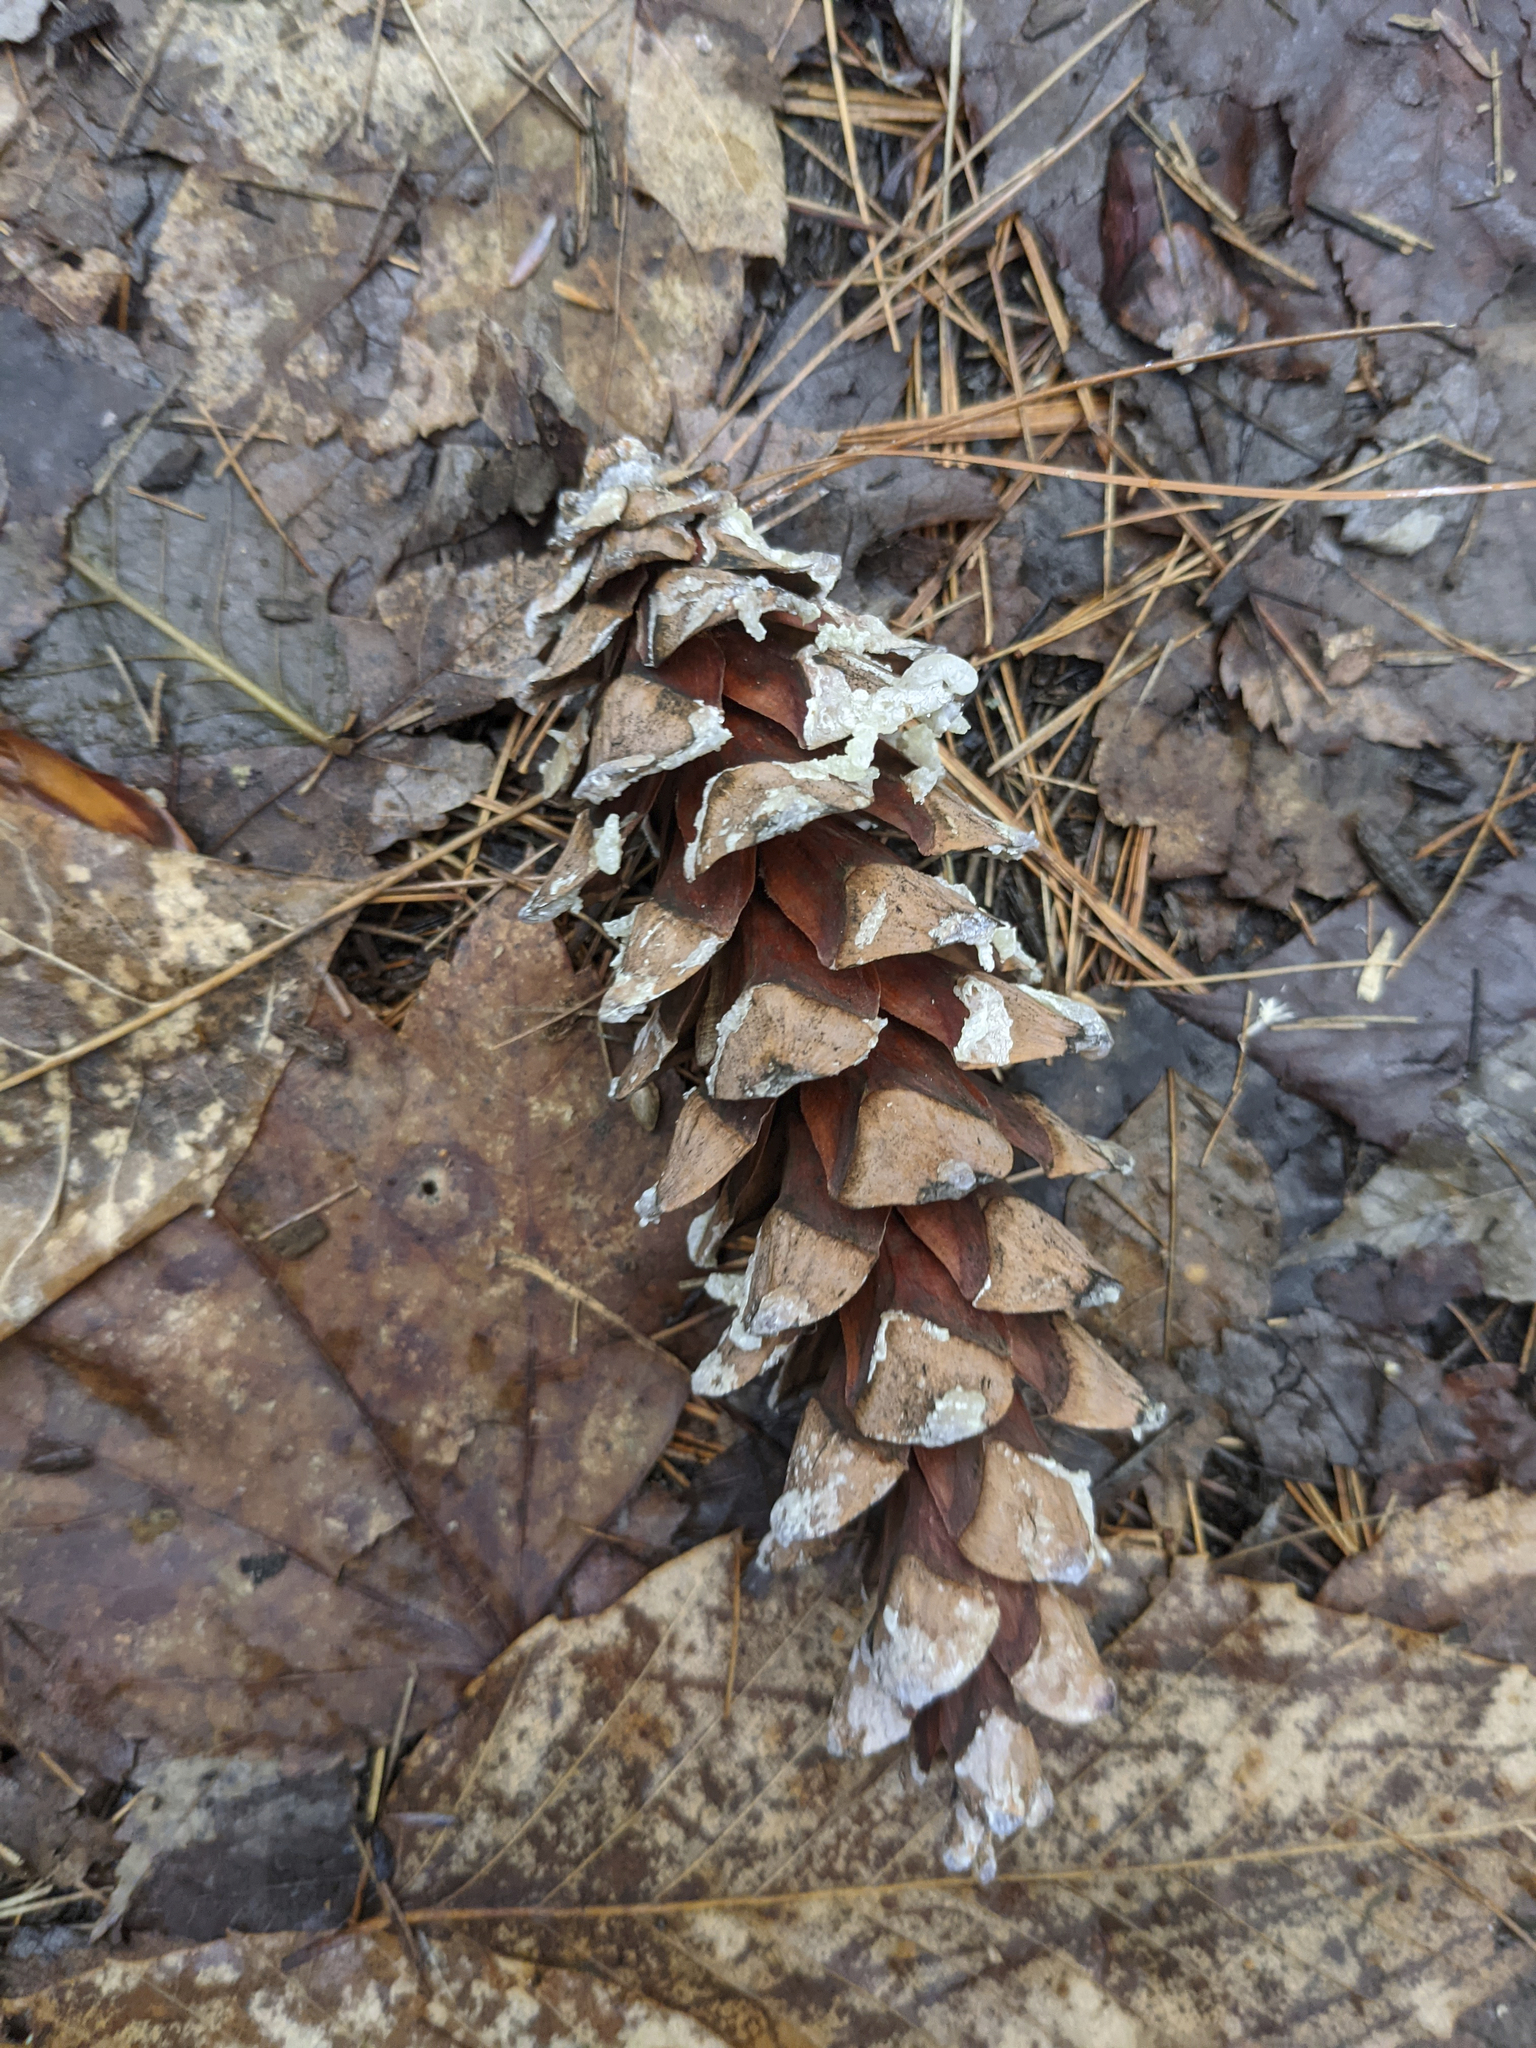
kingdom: Plantae
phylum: Tracheophyta
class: Pinopsida
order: Pinales
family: Pinaceae
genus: Pinus
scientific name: Pinus strobus
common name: Weymouth pine
